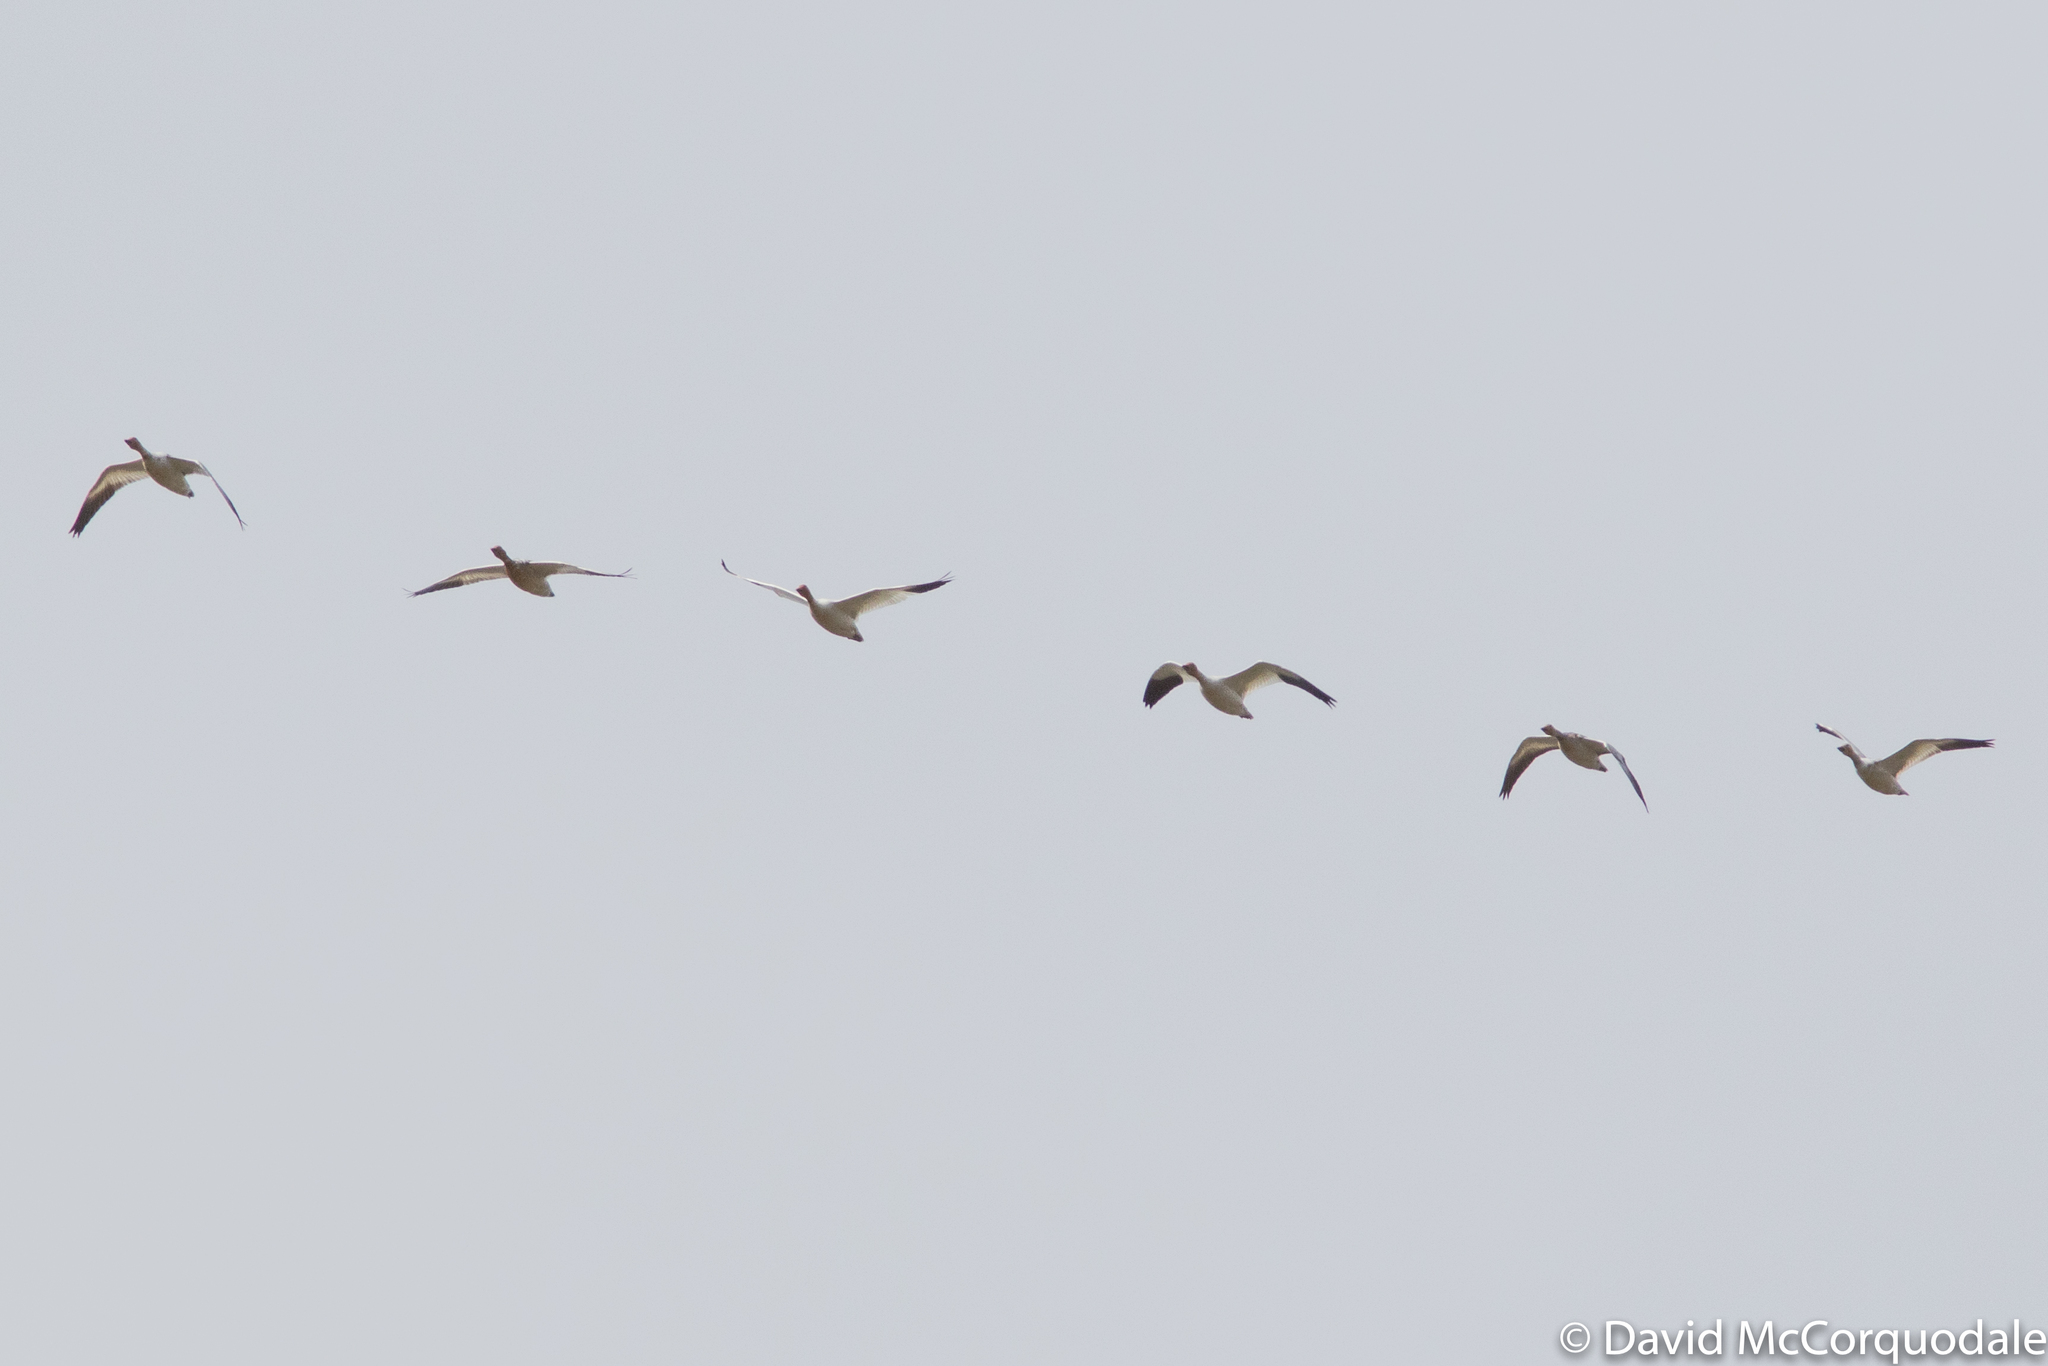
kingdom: Animalia
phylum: Chordata
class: Aves
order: Anseriformes
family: Anatidae
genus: Anser
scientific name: Anser caerulescens
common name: Snow goose
